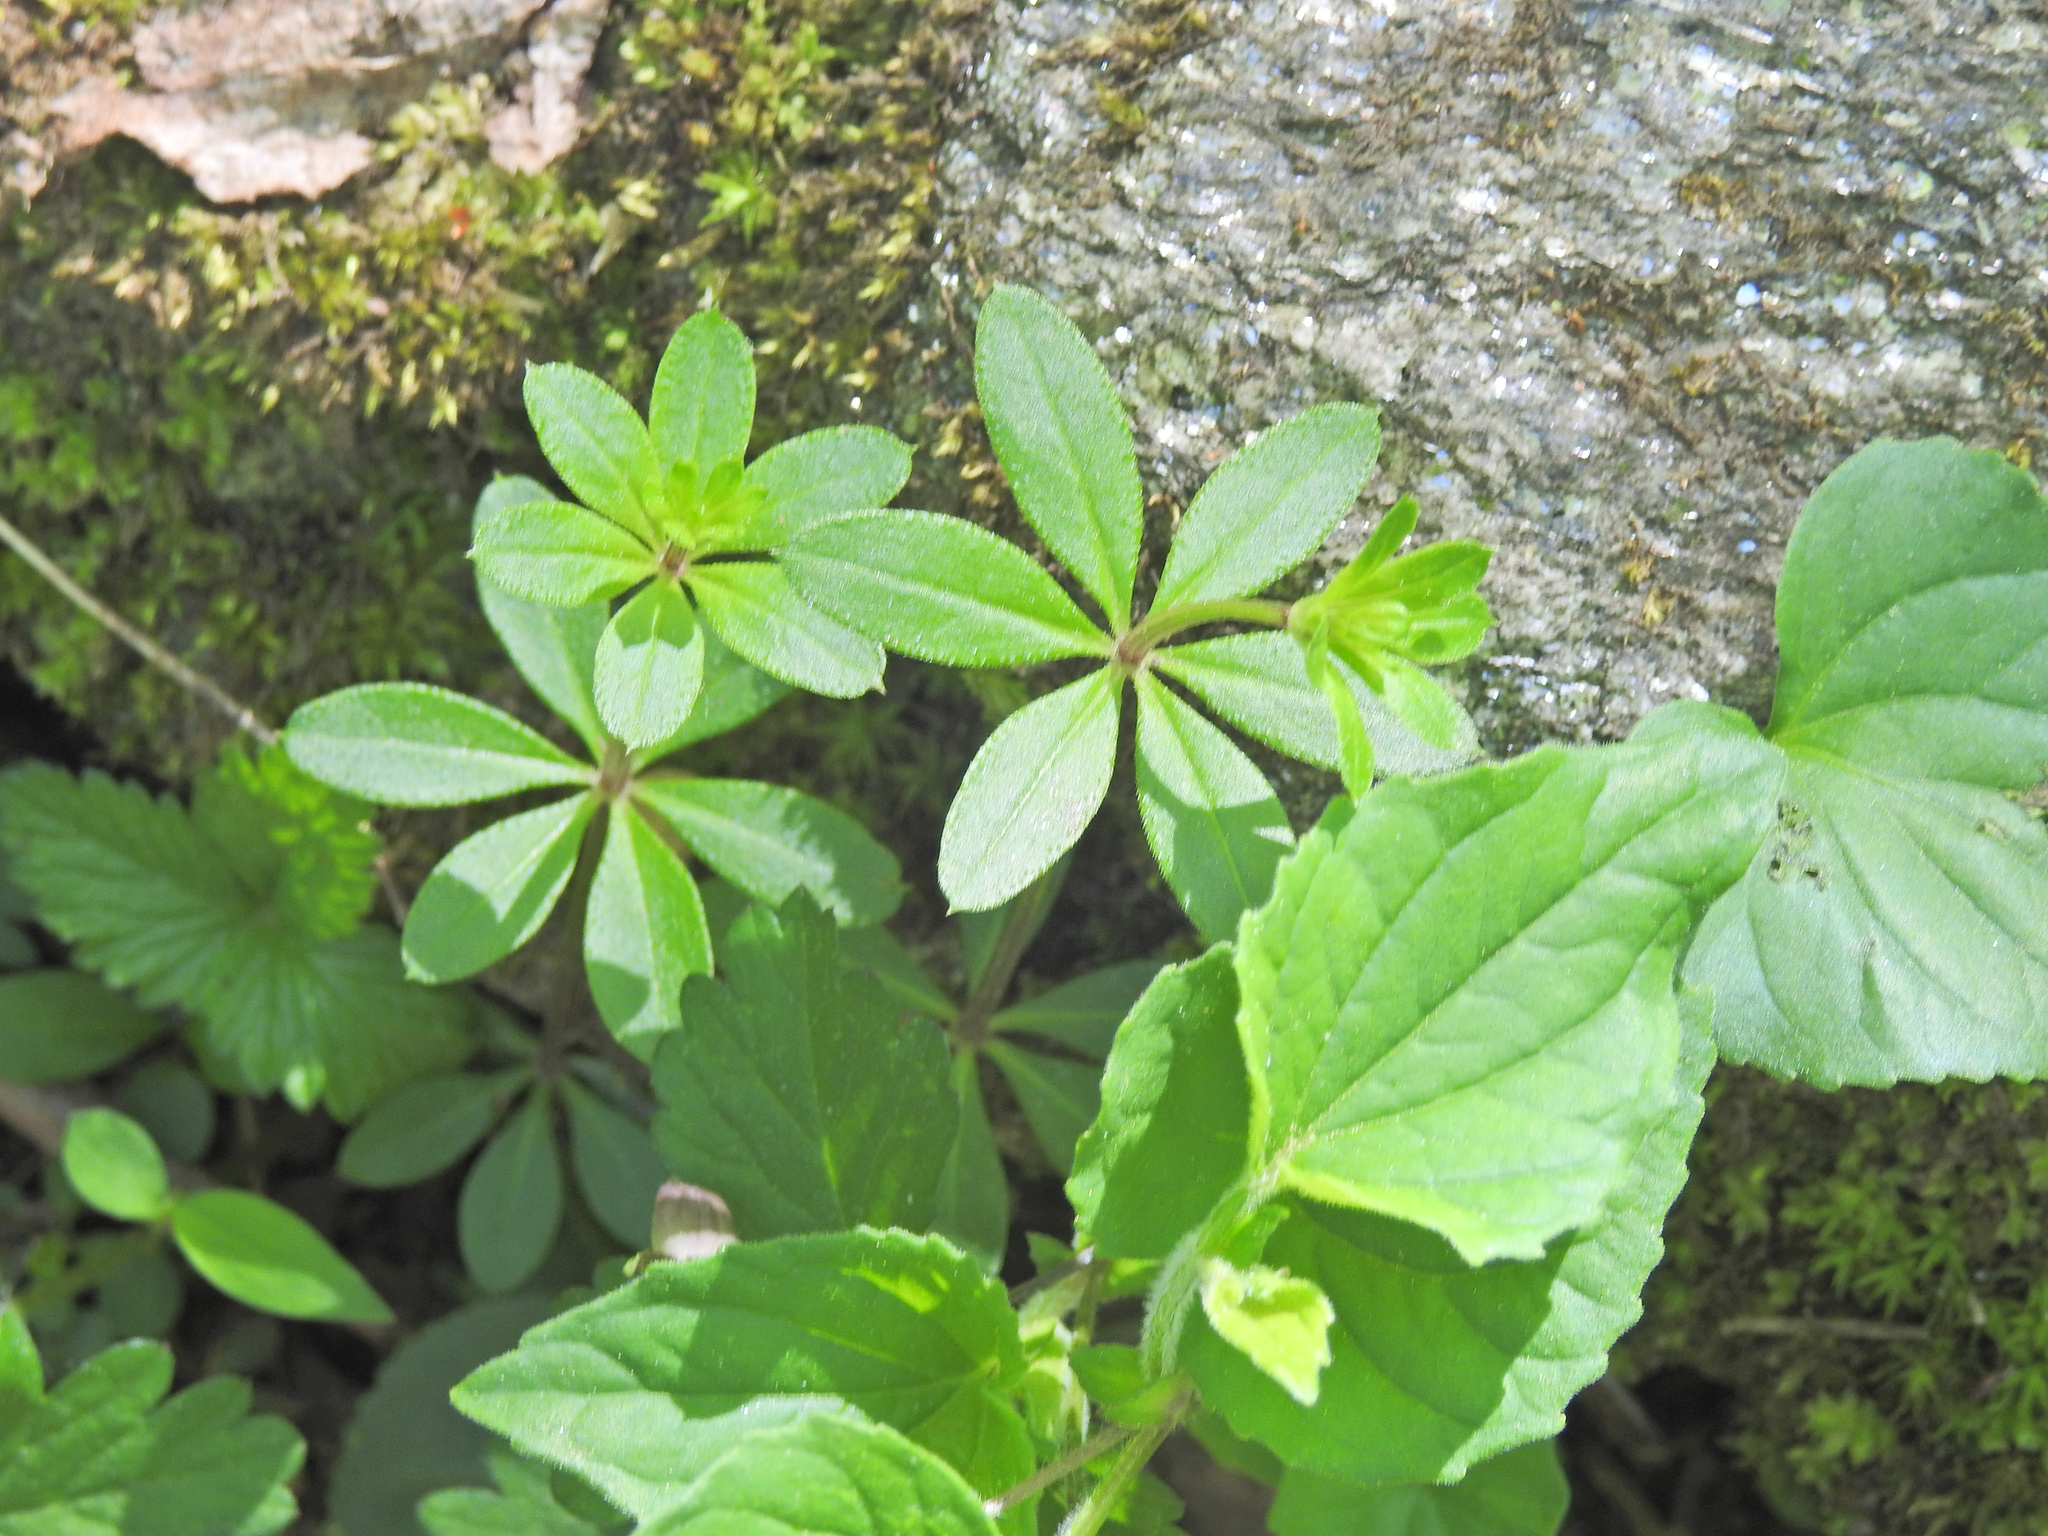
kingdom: Plantae
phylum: Tracheophyta
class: Magnoliopsida
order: Gentianales
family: Rubiaceae
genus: Galium
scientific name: Galium triflorum
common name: Fragrant bedstraw
